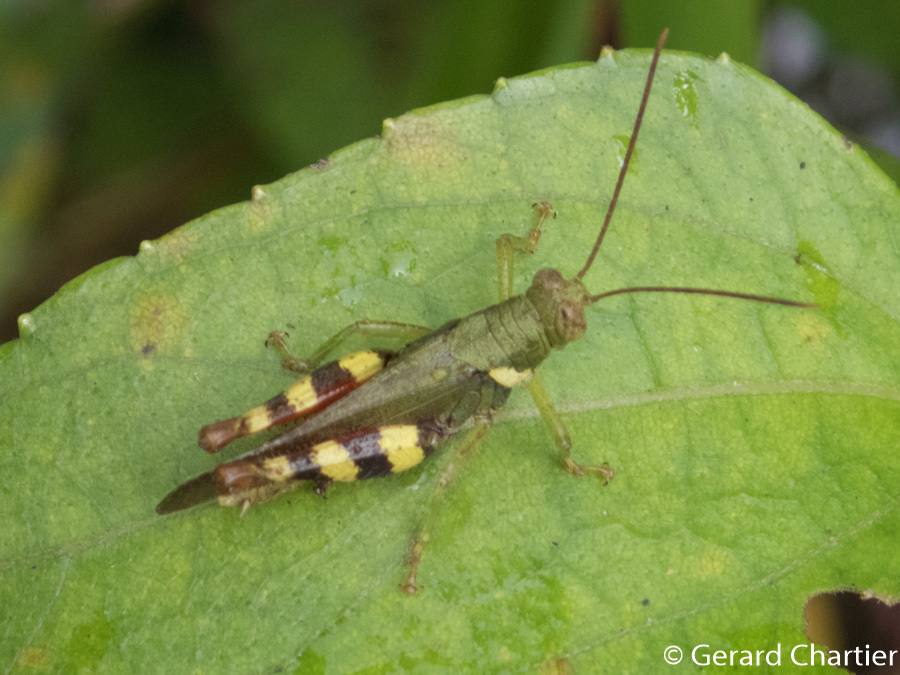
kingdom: Animalia
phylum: Arthropoda
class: Insecta
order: Orthoptera
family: Acrididae
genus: Apalacris
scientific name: Apalacris varicornis
